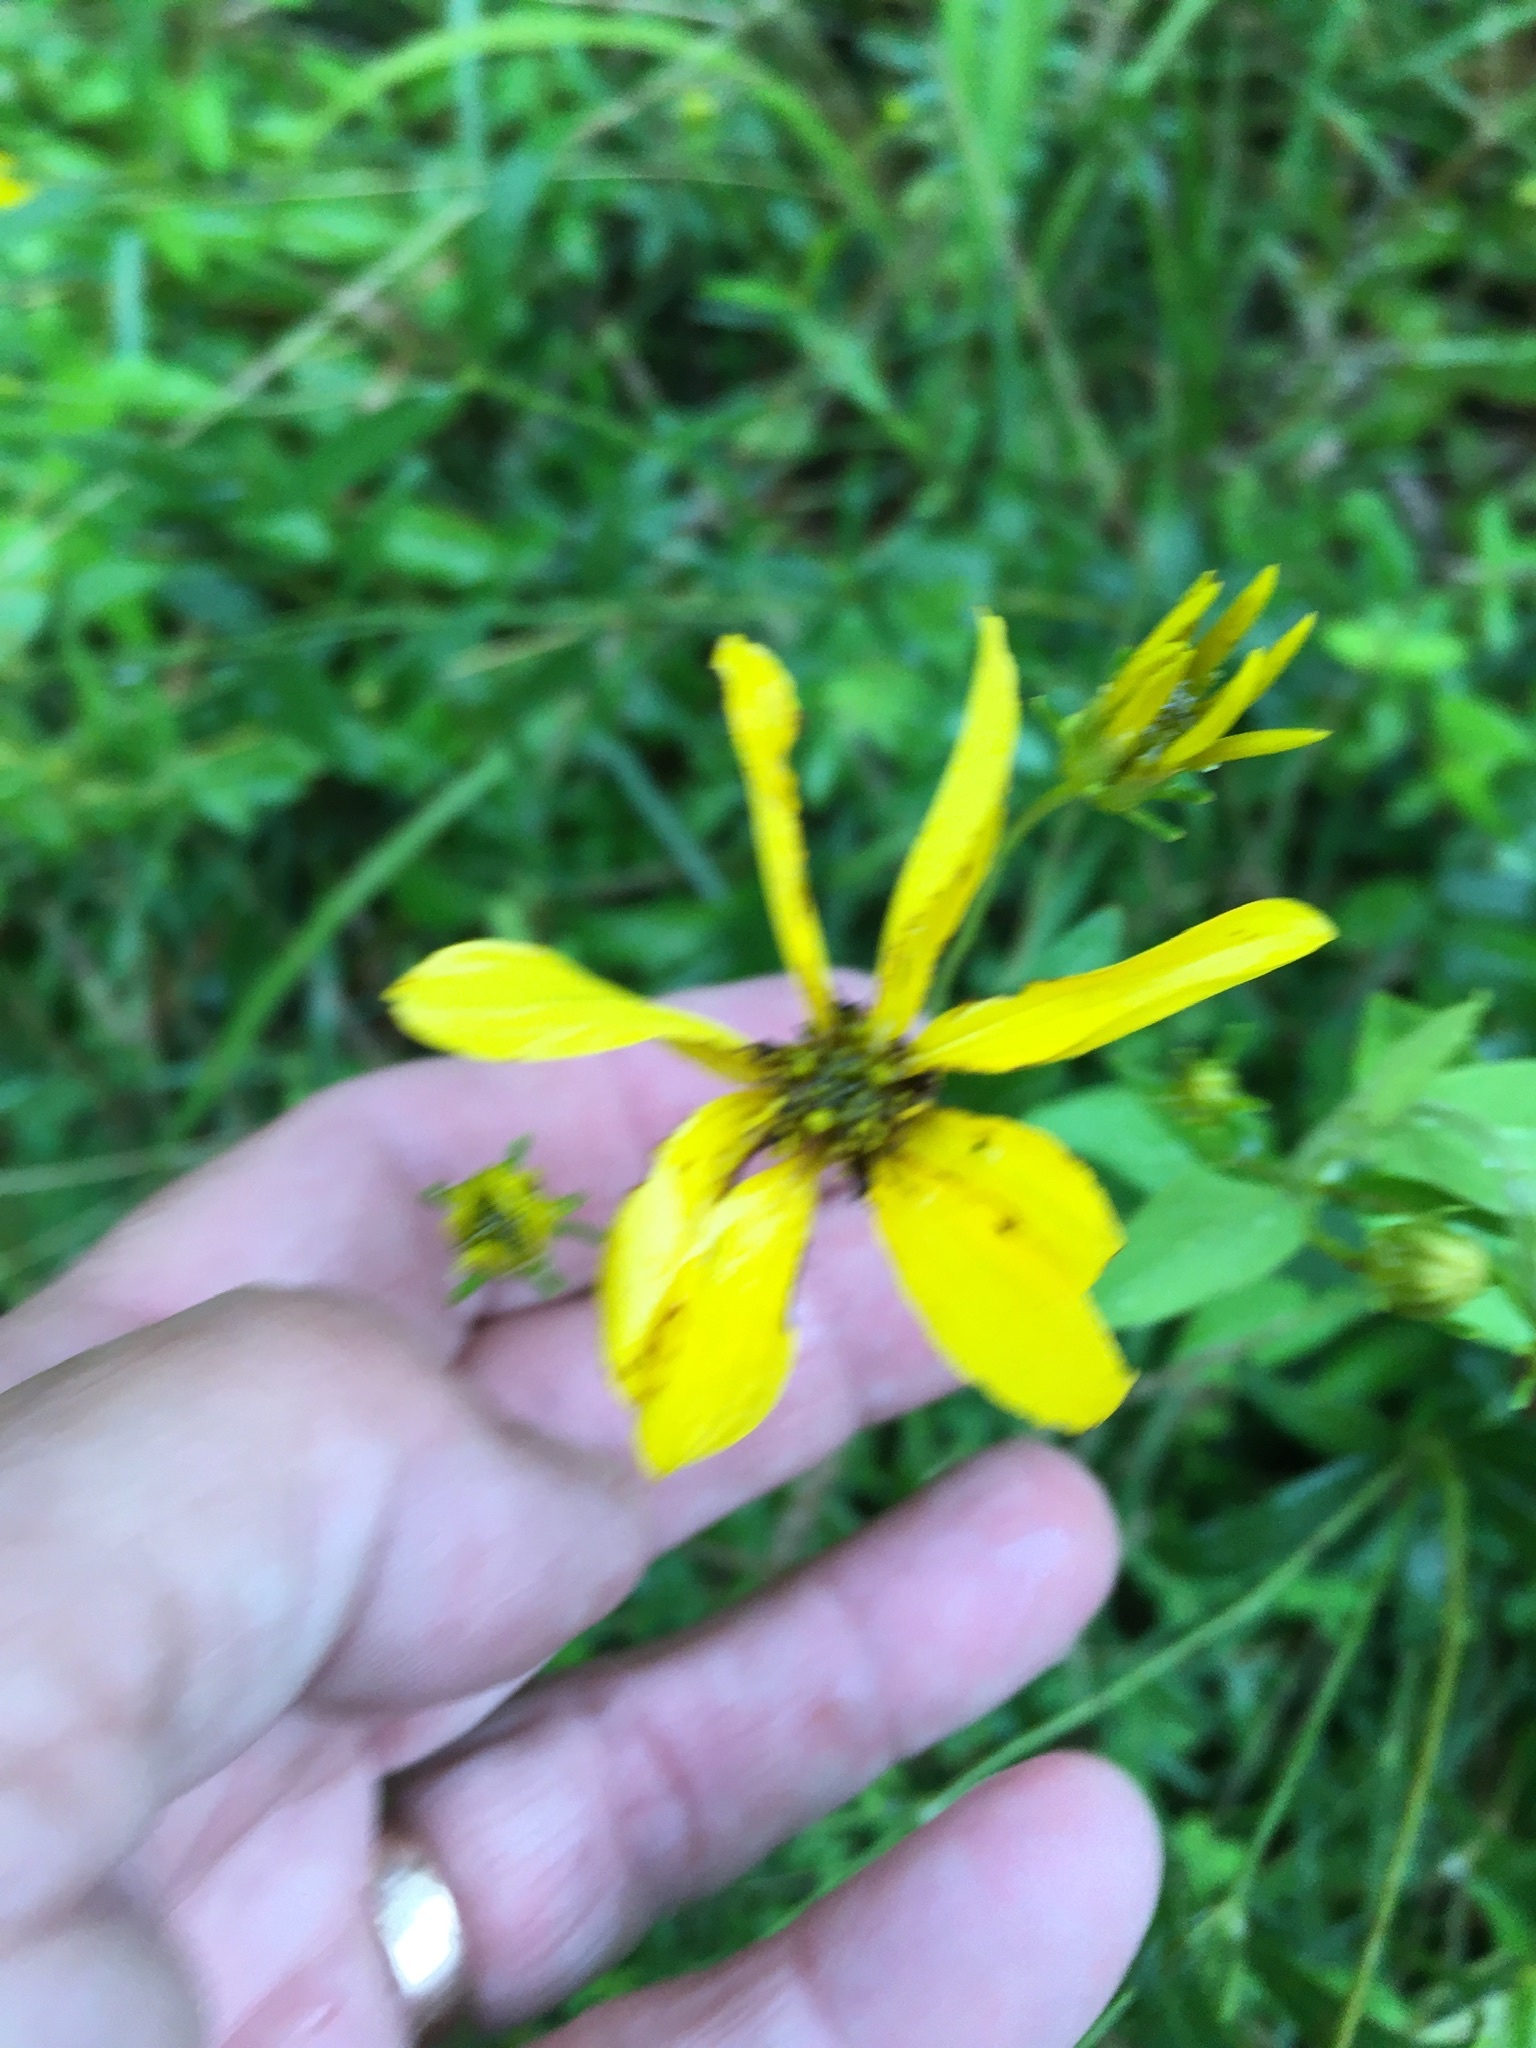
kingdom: Plantae
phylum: Tracheophyta
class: Magnoliopsida
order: Asterales
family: Asteraceae
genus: Coreopsis
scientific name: Coreopsis major
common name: Forest tickseed
